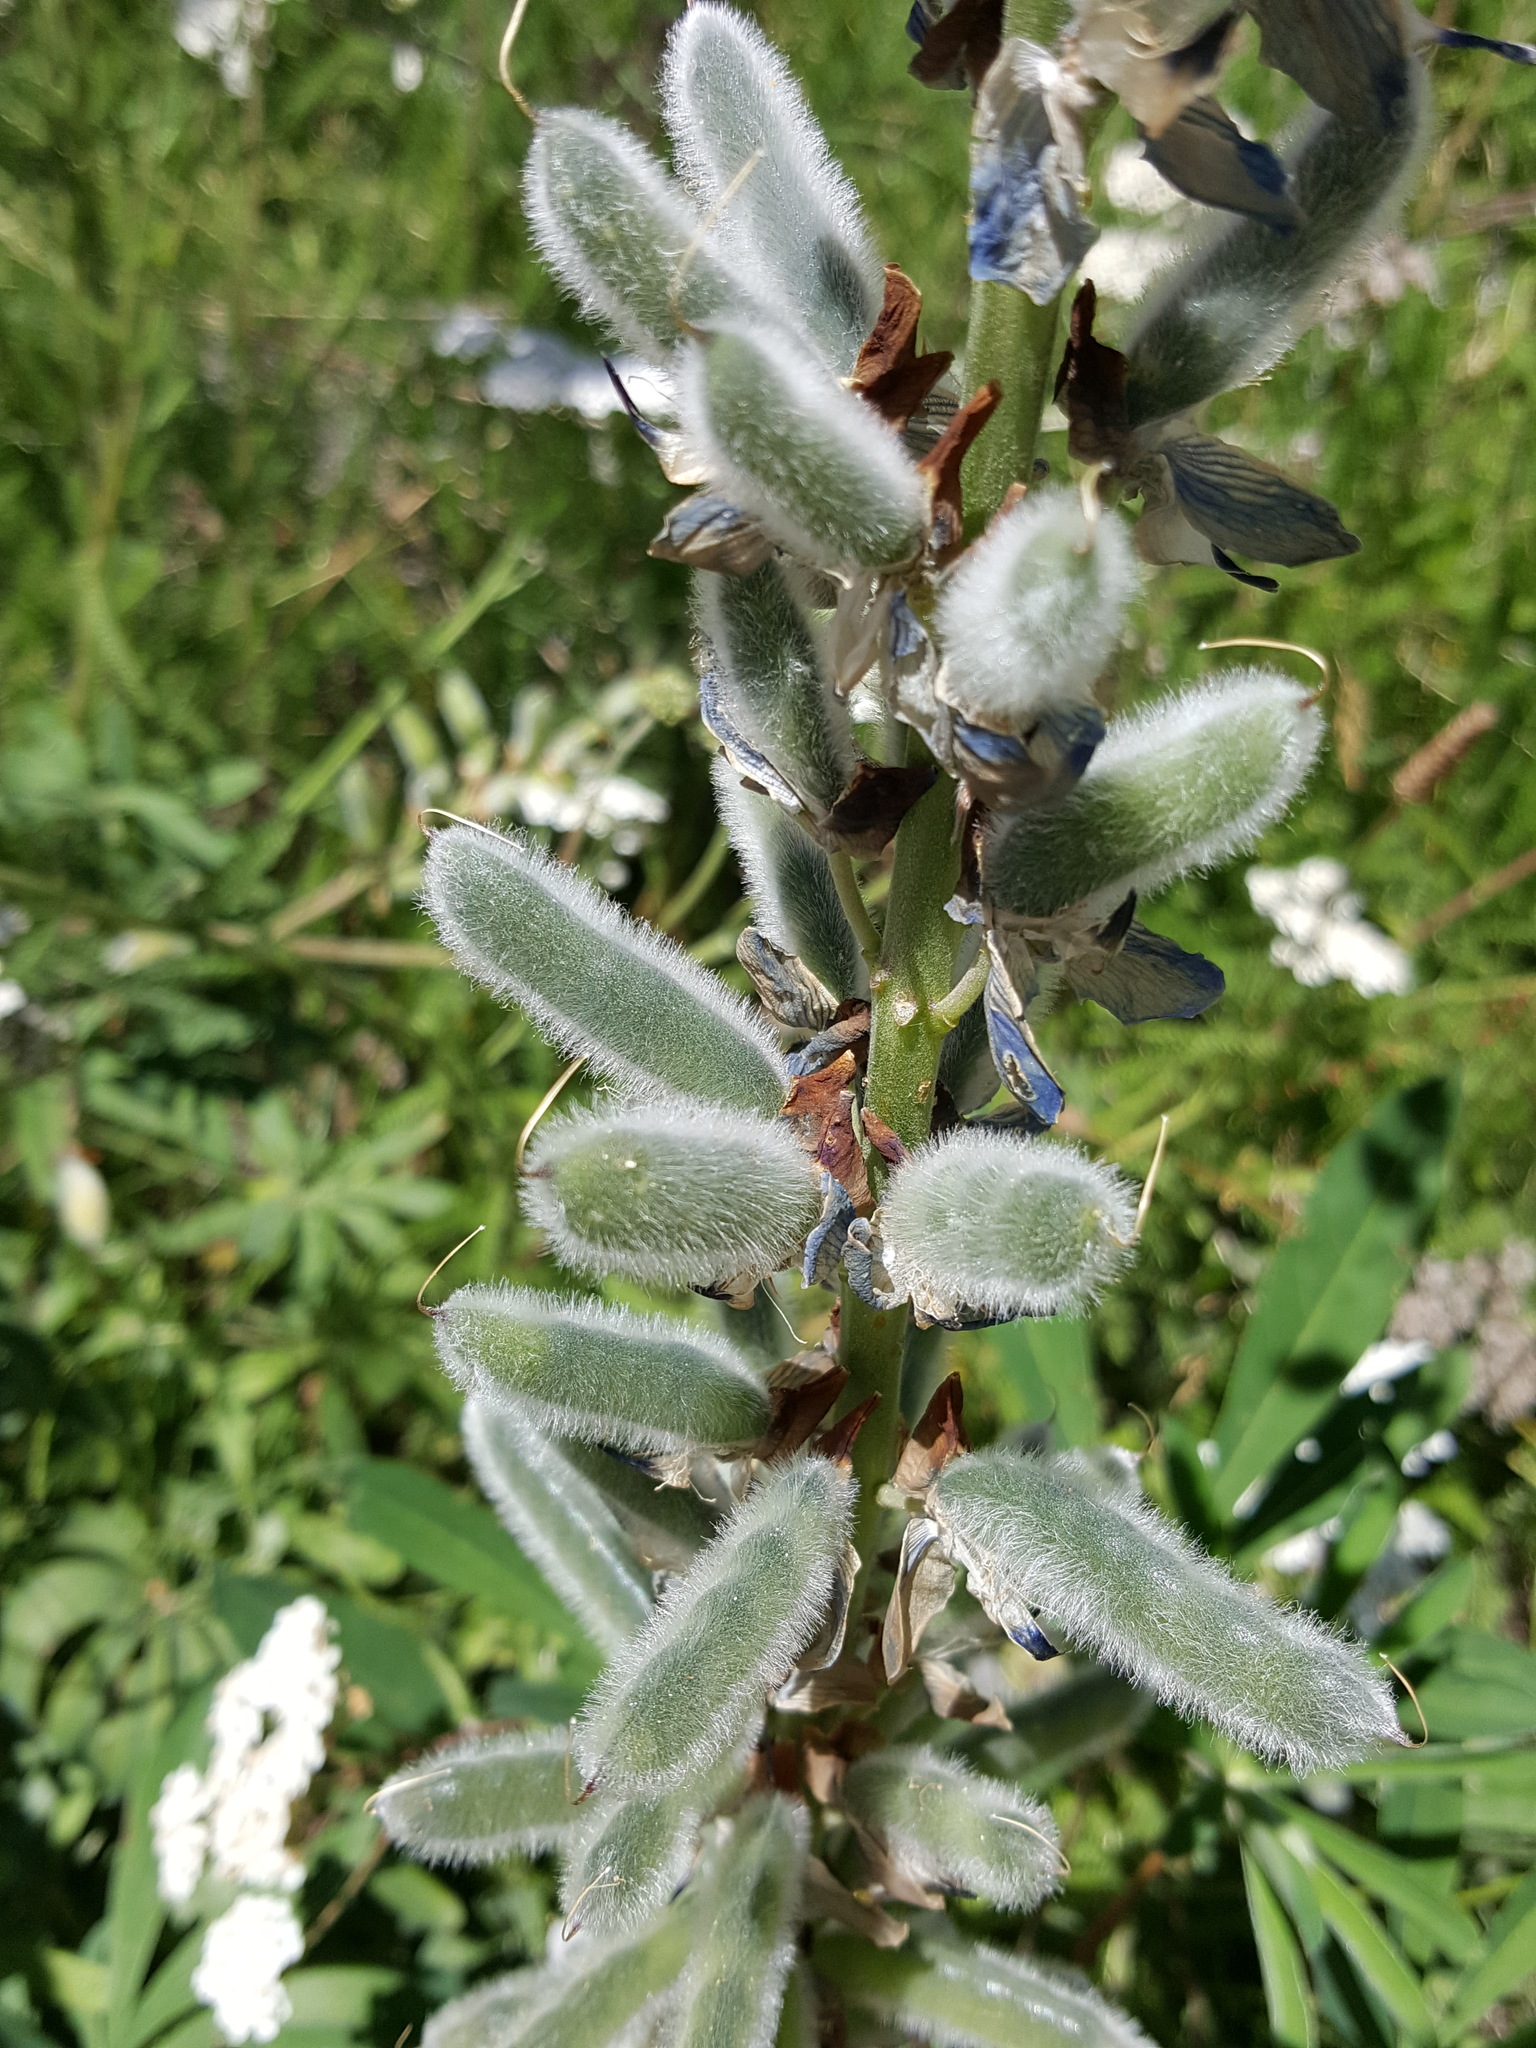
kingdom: Plantae
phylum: Tracheophyta
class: Magnoliopsida
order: Fabales
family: Fabaceae
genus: Lupinus
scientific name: Lupinus polyphyllus
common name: Garden lupin
